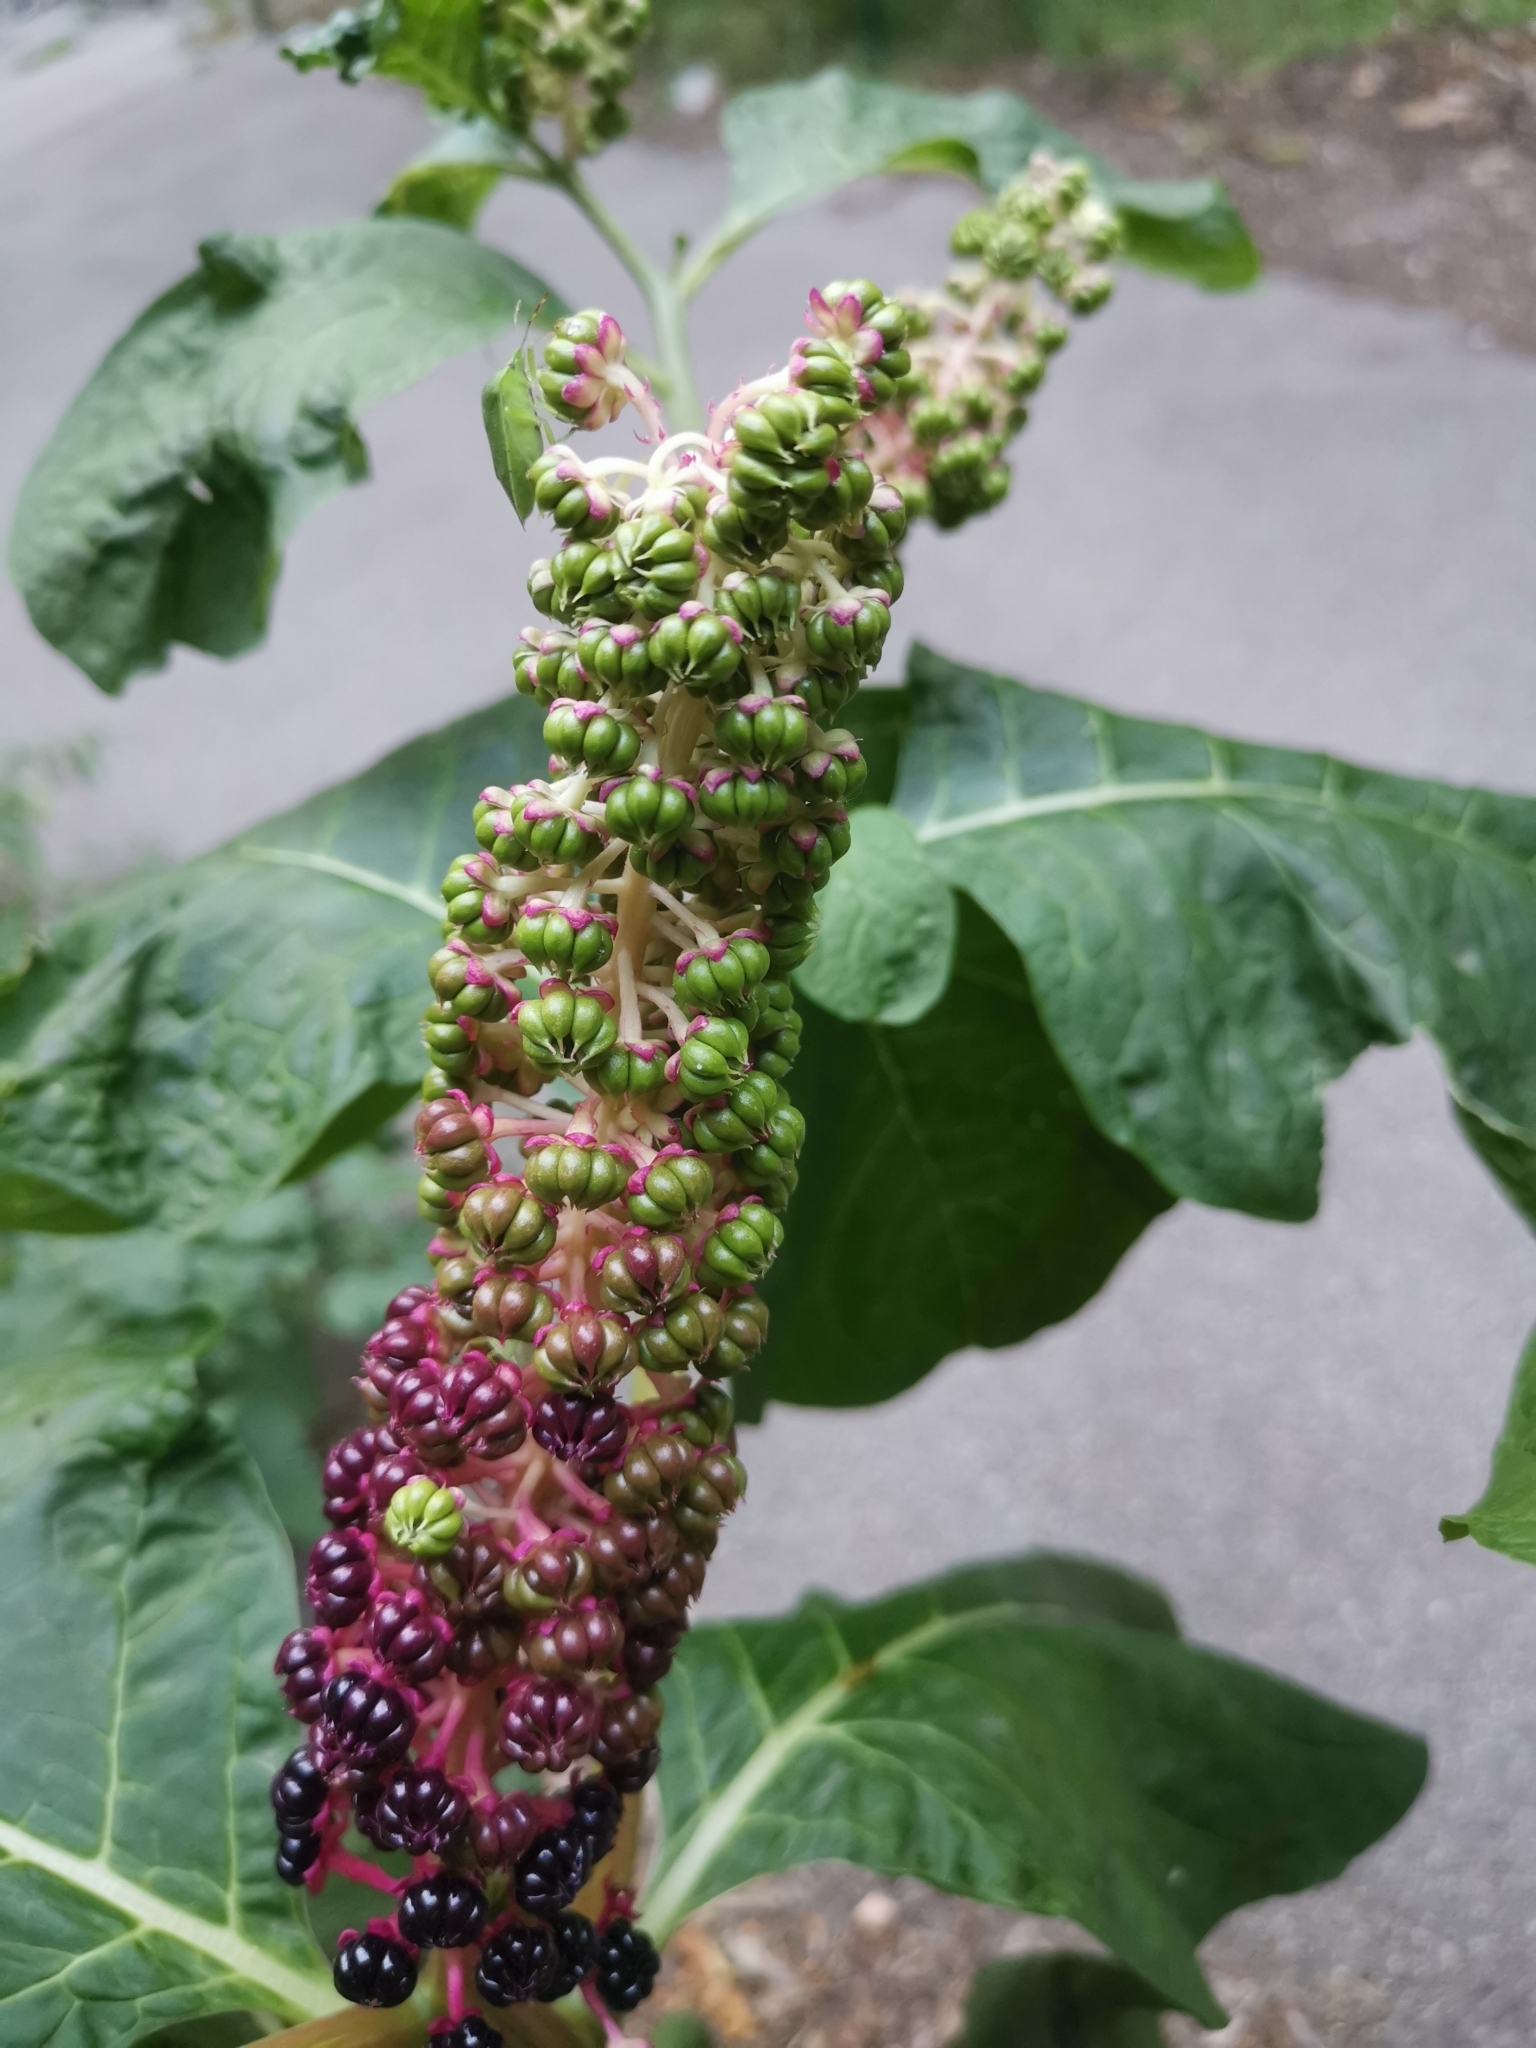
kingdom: Plantae
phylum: Tracheophyta
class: Magnoliopsida
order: Caryophyllales
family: Phytolaccaceae
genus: Phytolacca
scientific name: Phytolacca acinosa
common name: Indian pokeweed
